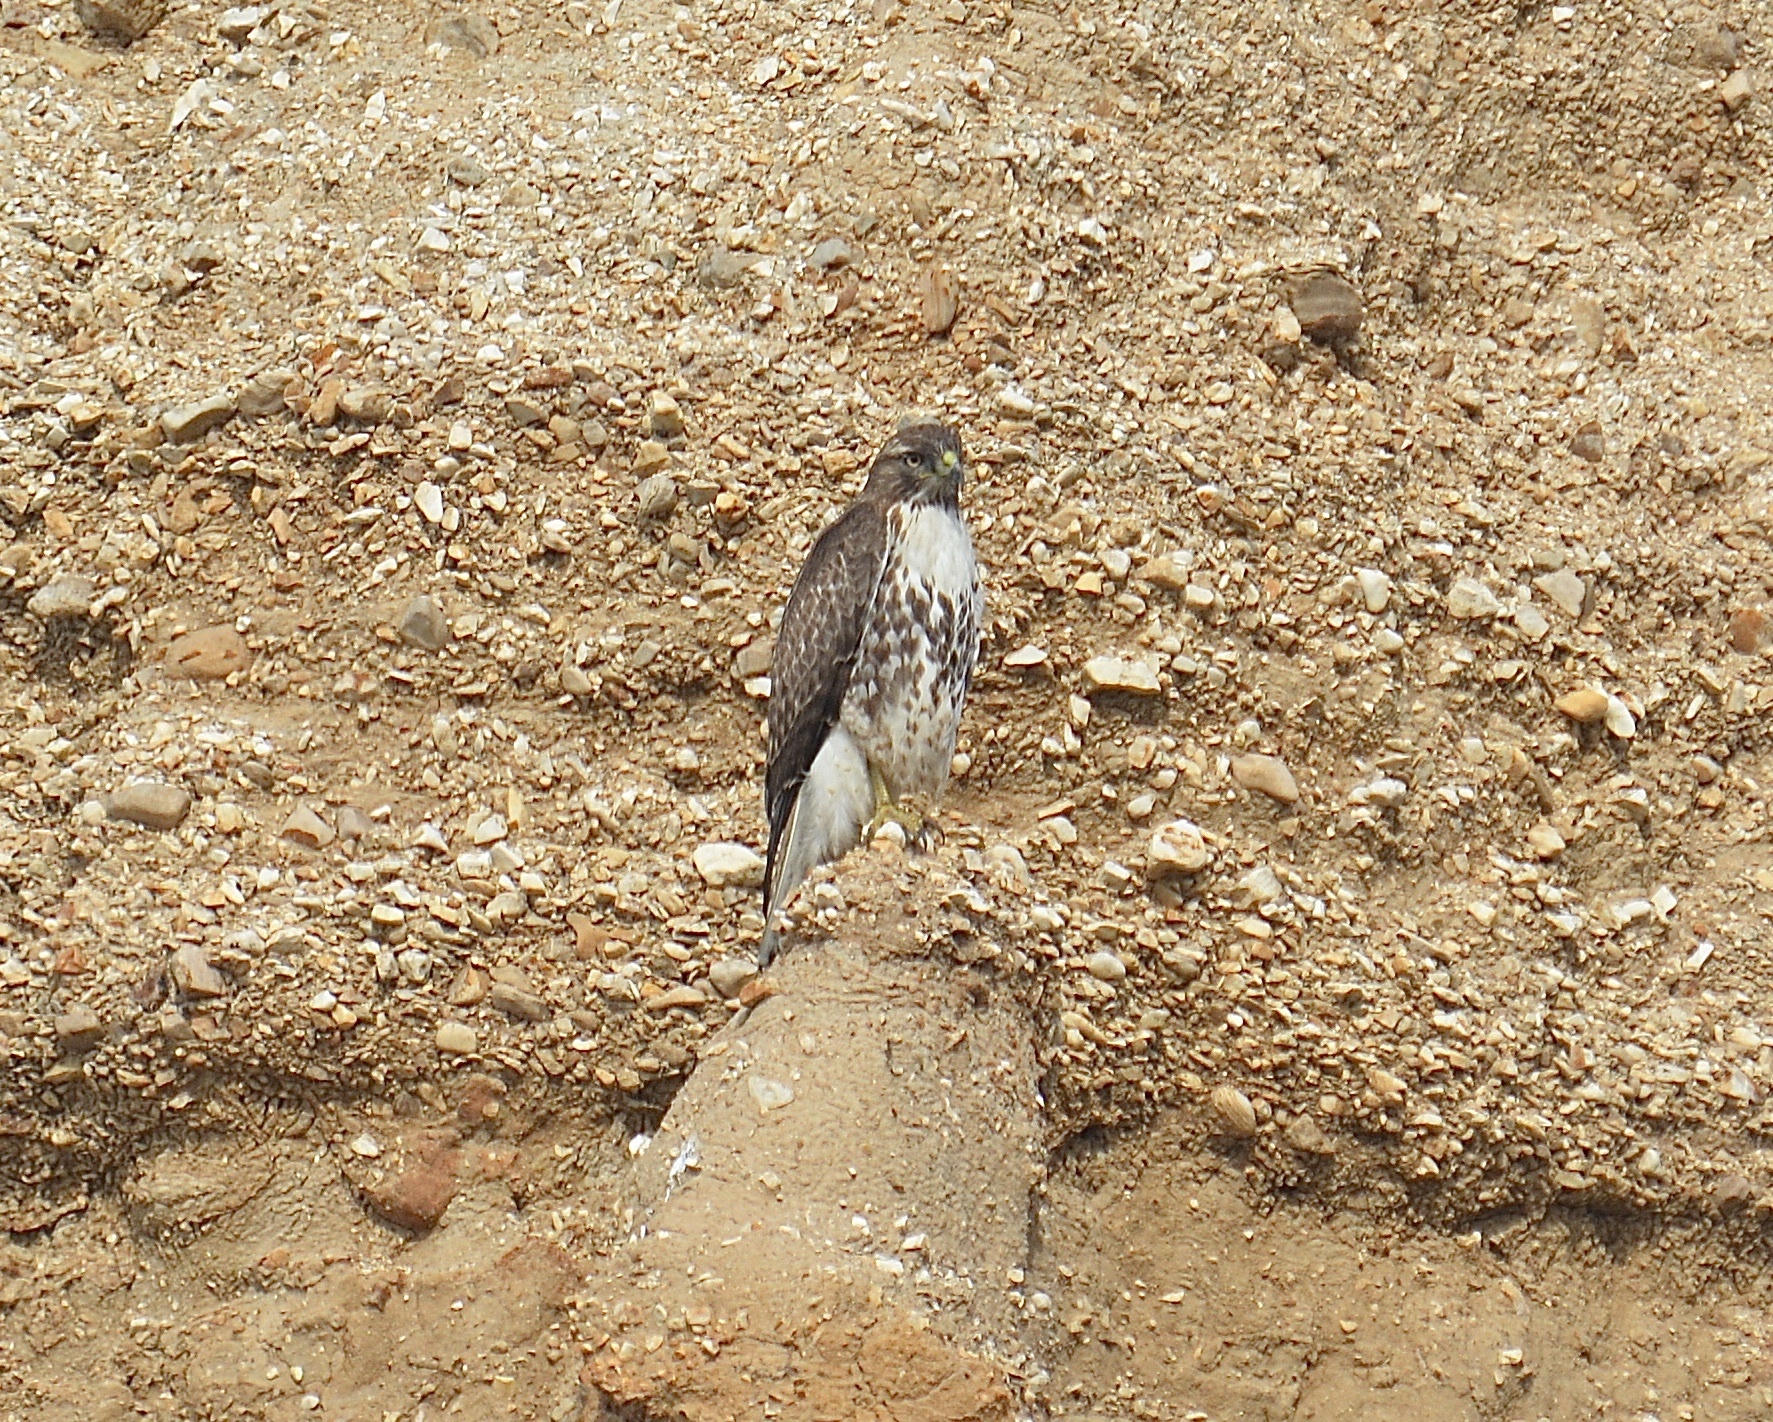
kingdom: Animalia
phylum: Chordata
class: Aves
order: Accipitriformes
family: Accipitridae
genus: Buteo
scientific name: Buteo jamaicensis
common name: Red-tailed hawk
